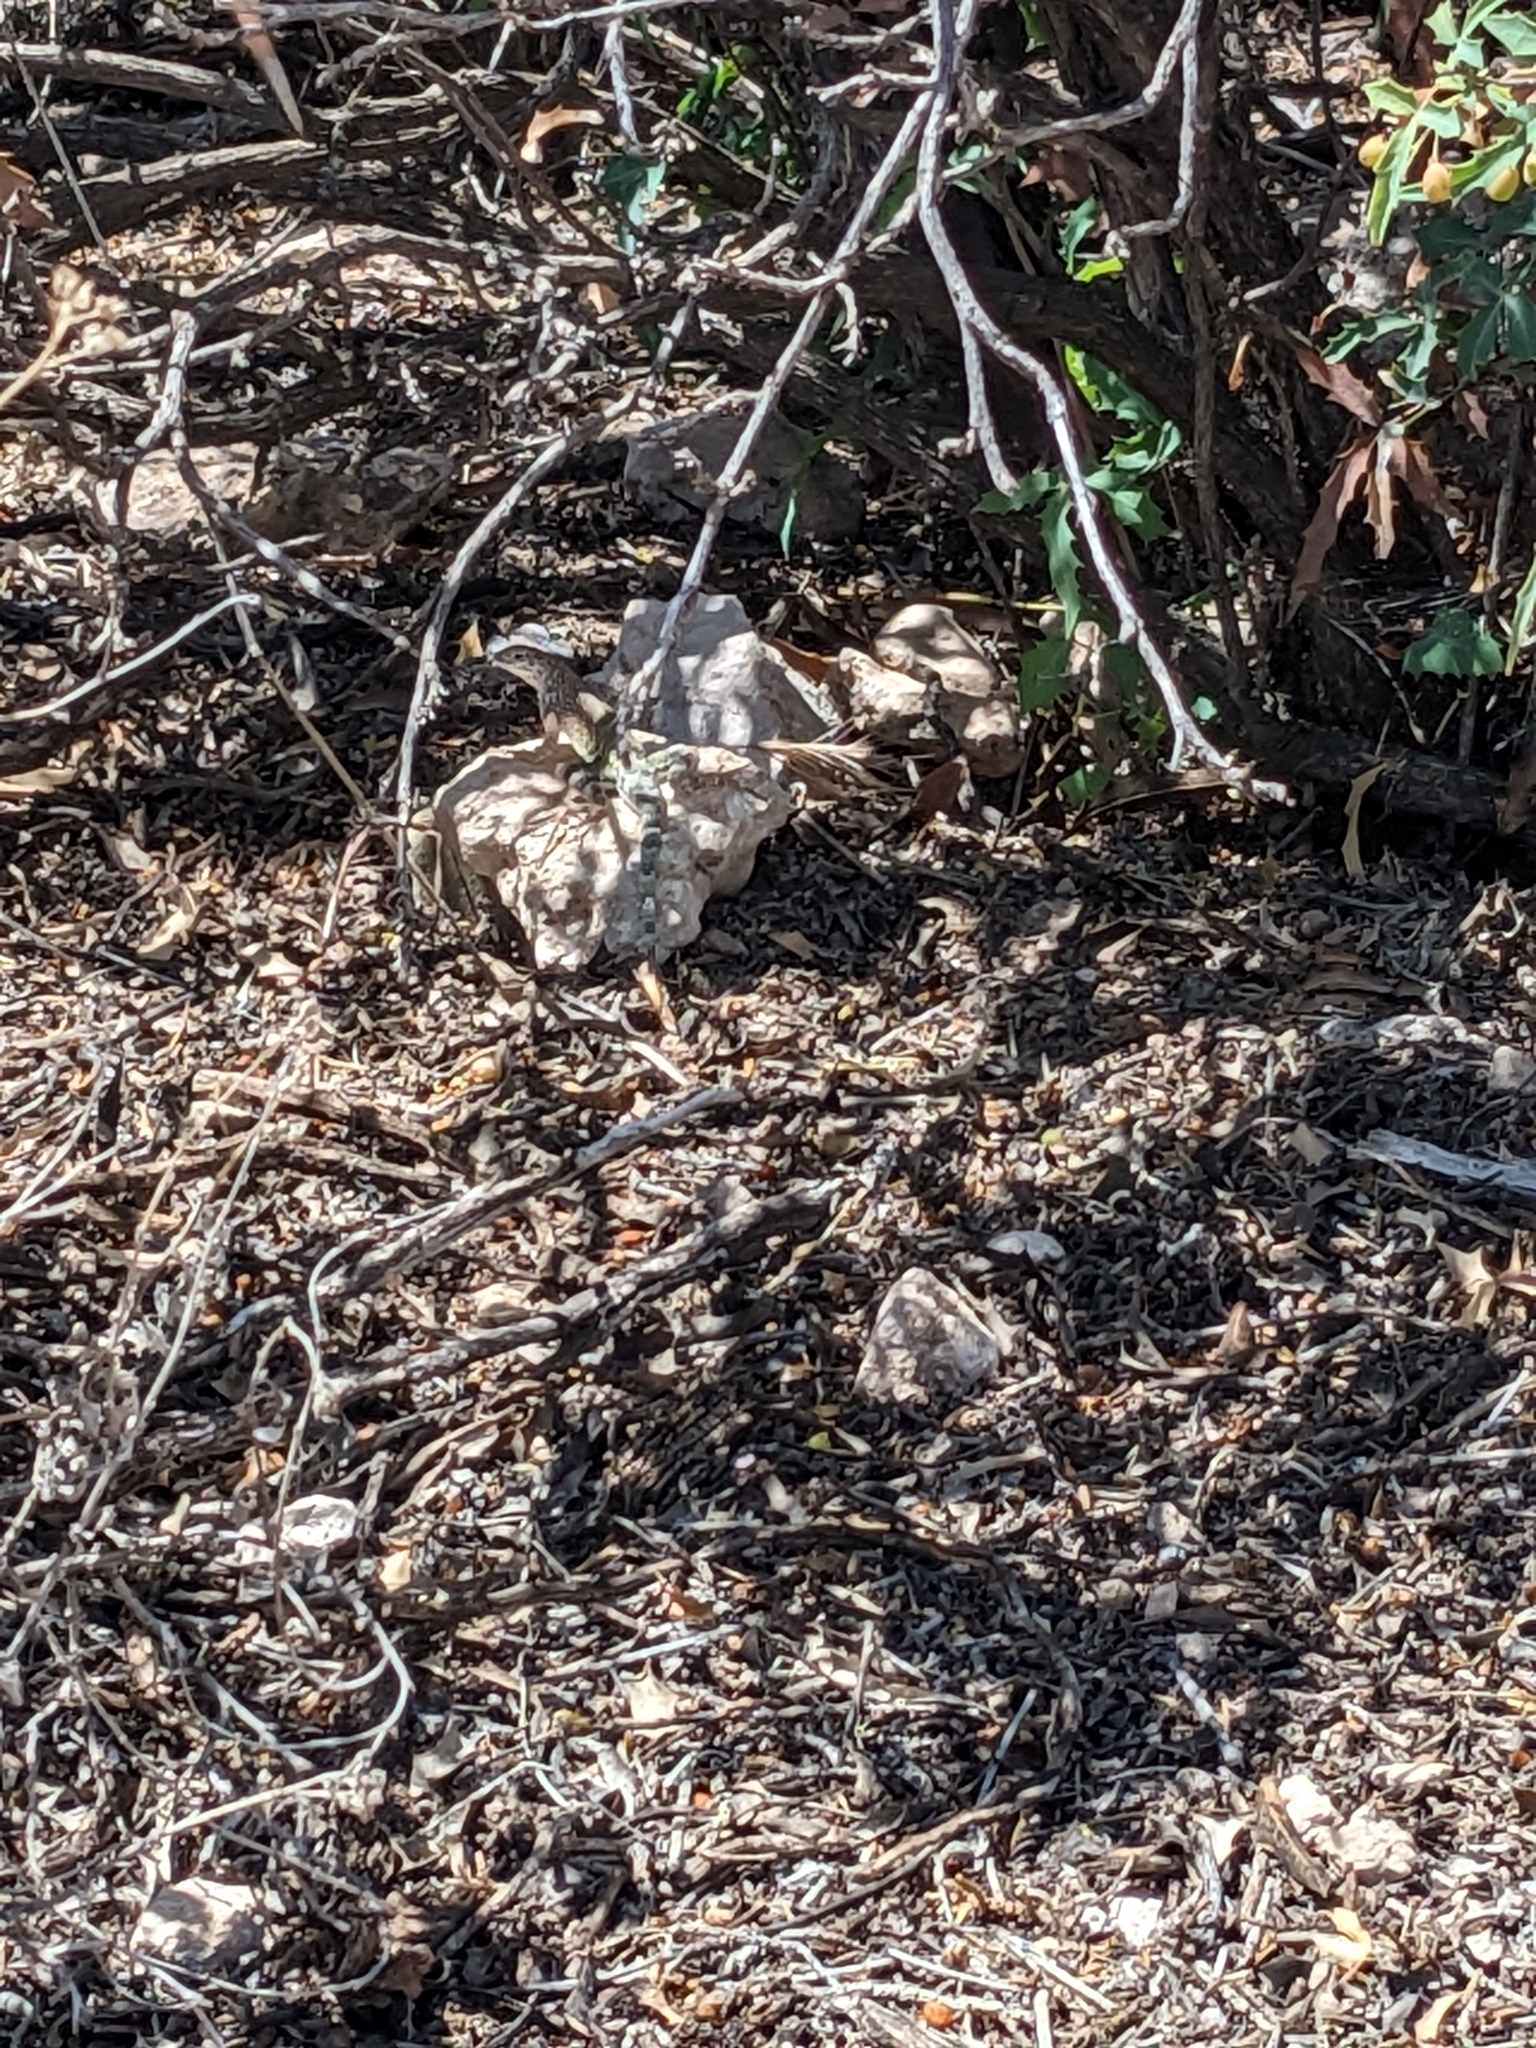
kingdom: Animalia
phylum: Chordata
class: Squamata
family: Phrynosomatidae
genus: Cophosaurus
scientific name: Cophosaurus texanus
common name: Greater earless lizard
